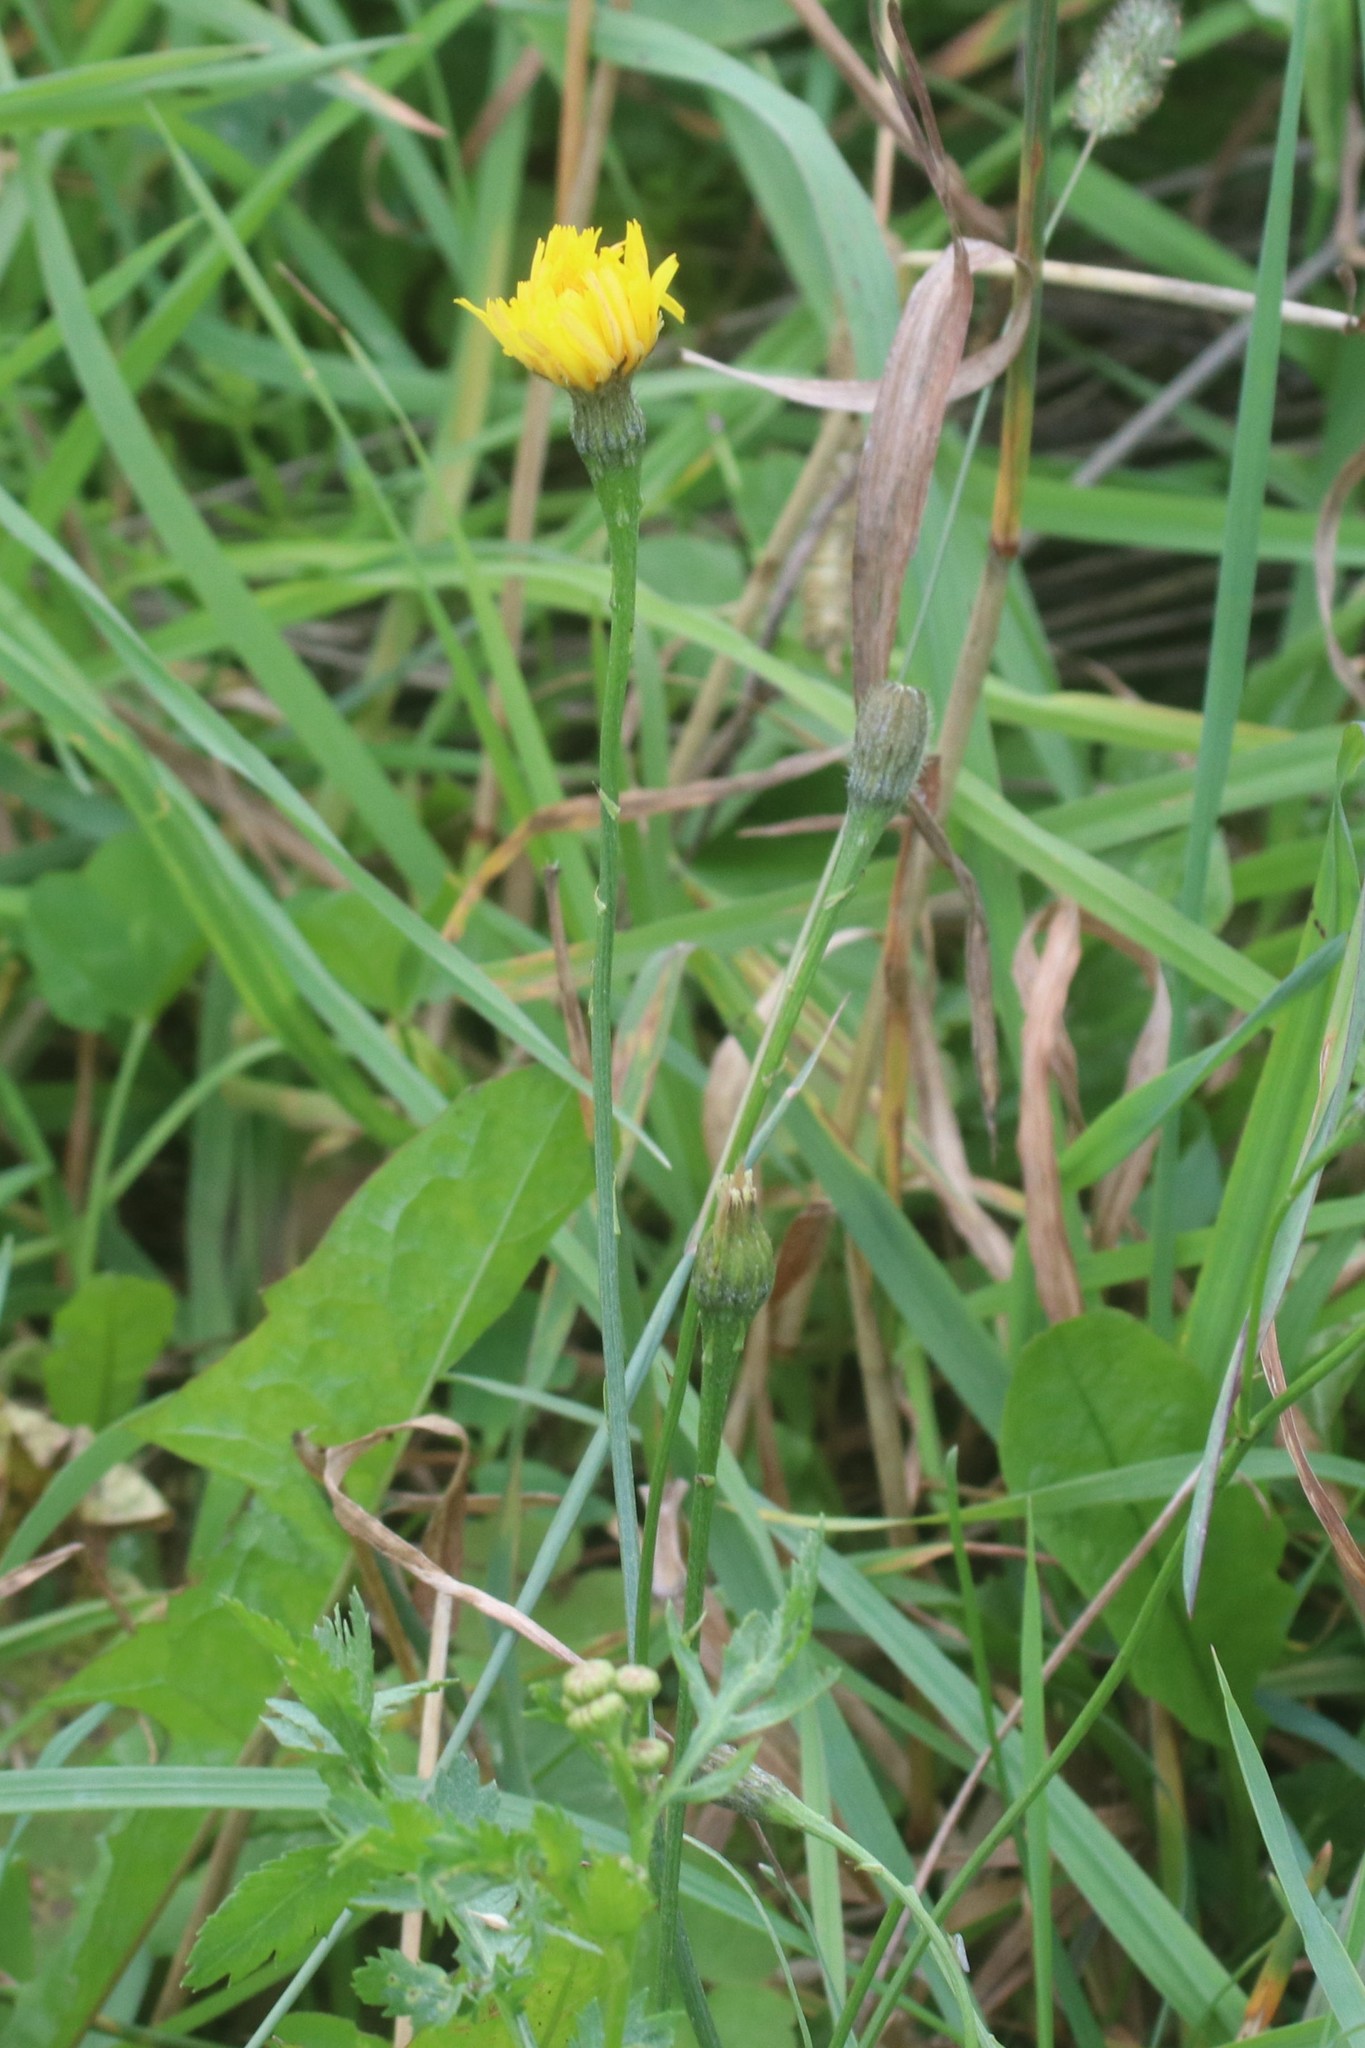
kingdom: Plantae
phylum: Tracheophyta
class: Magnoliopsida
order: Asterales
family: Asteraceae
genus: Scorzoneroides
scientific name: Scorzoneroides autumnalis
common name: Autumn hawkbit
